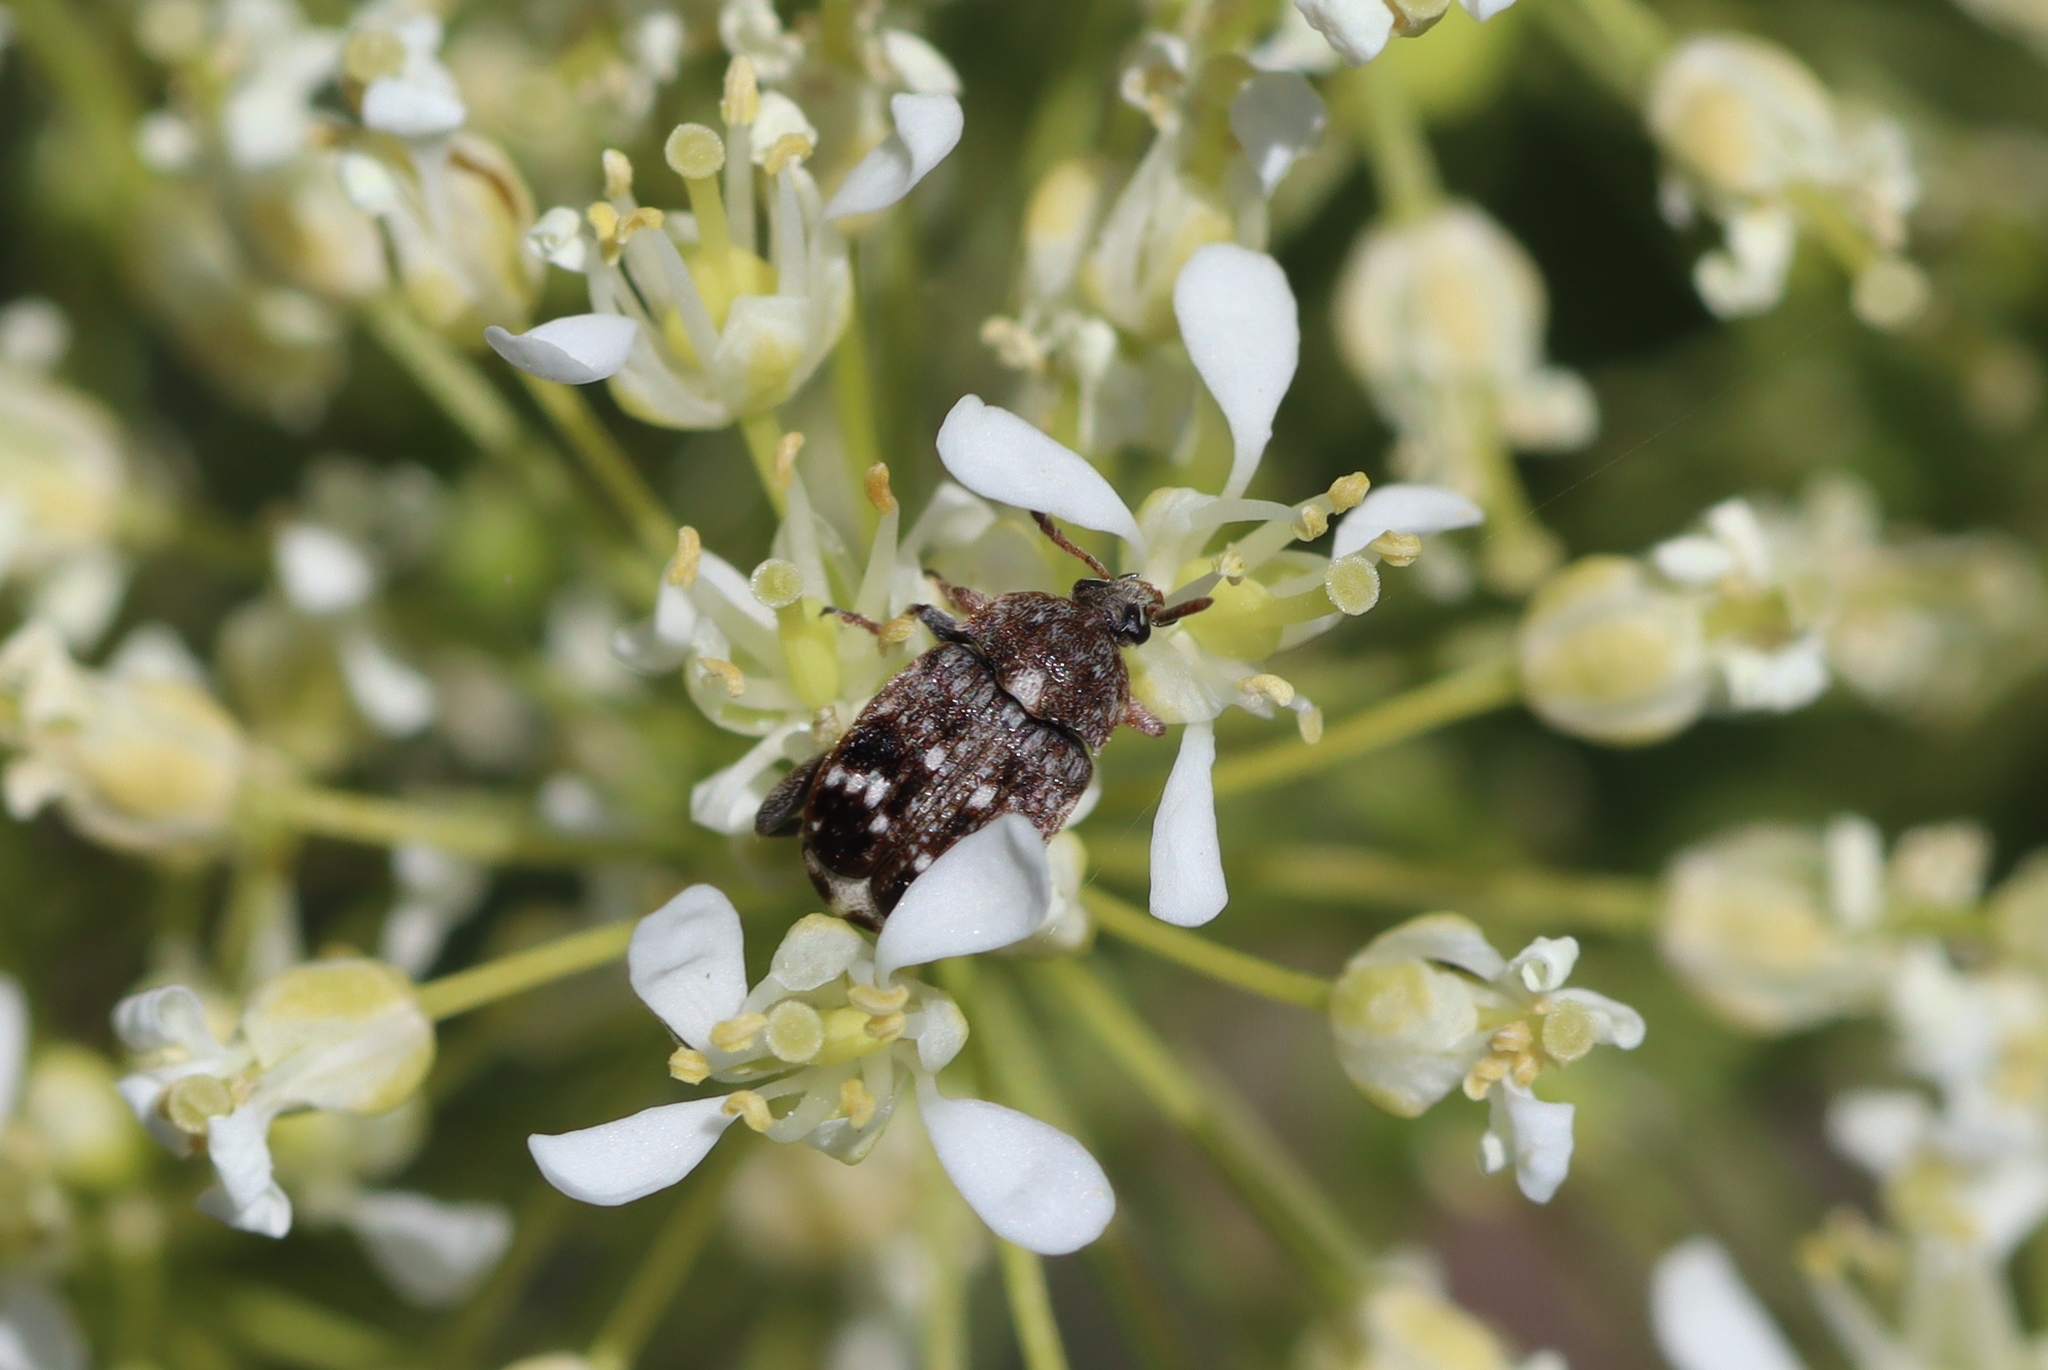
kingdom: Animalia
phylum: Arthropoda
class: Insecta
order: Coleoptera
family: Chrysomelidae
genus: Bruchus
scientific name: Bruchus pisorum
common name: Pea weevil
